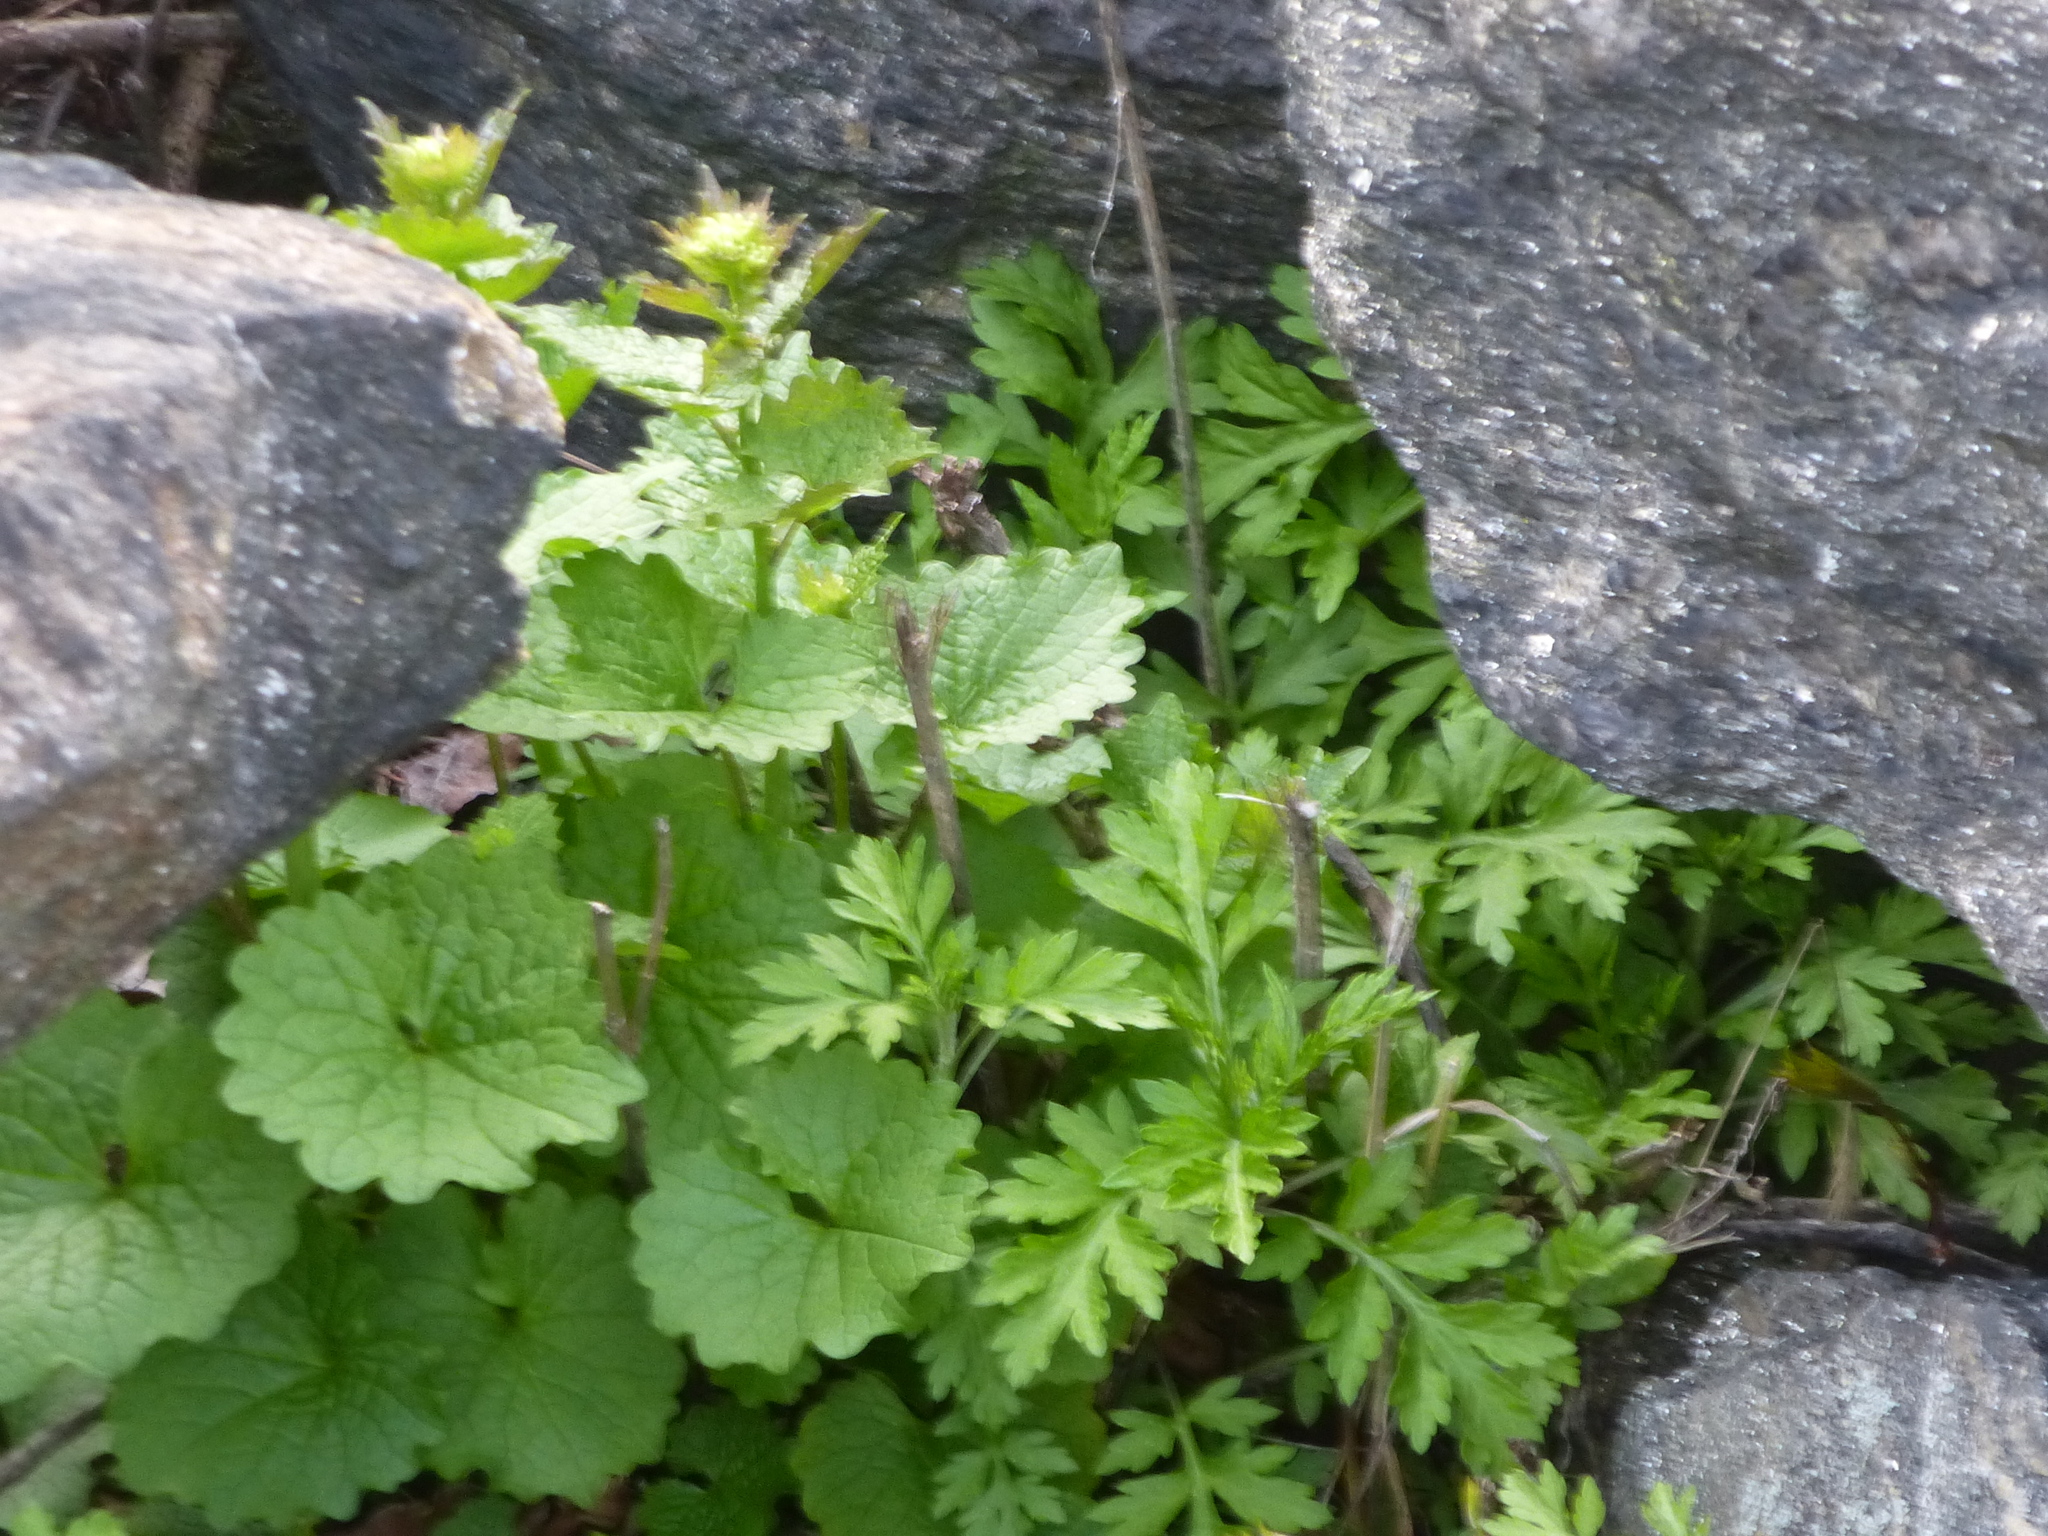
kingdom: Plantae
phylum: Tracheophyta
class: Magnoliopsida
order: Brassicales
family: Brassicaceae
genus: Alliaria
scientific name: Alliaria petiolata
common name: Garlic mustard
